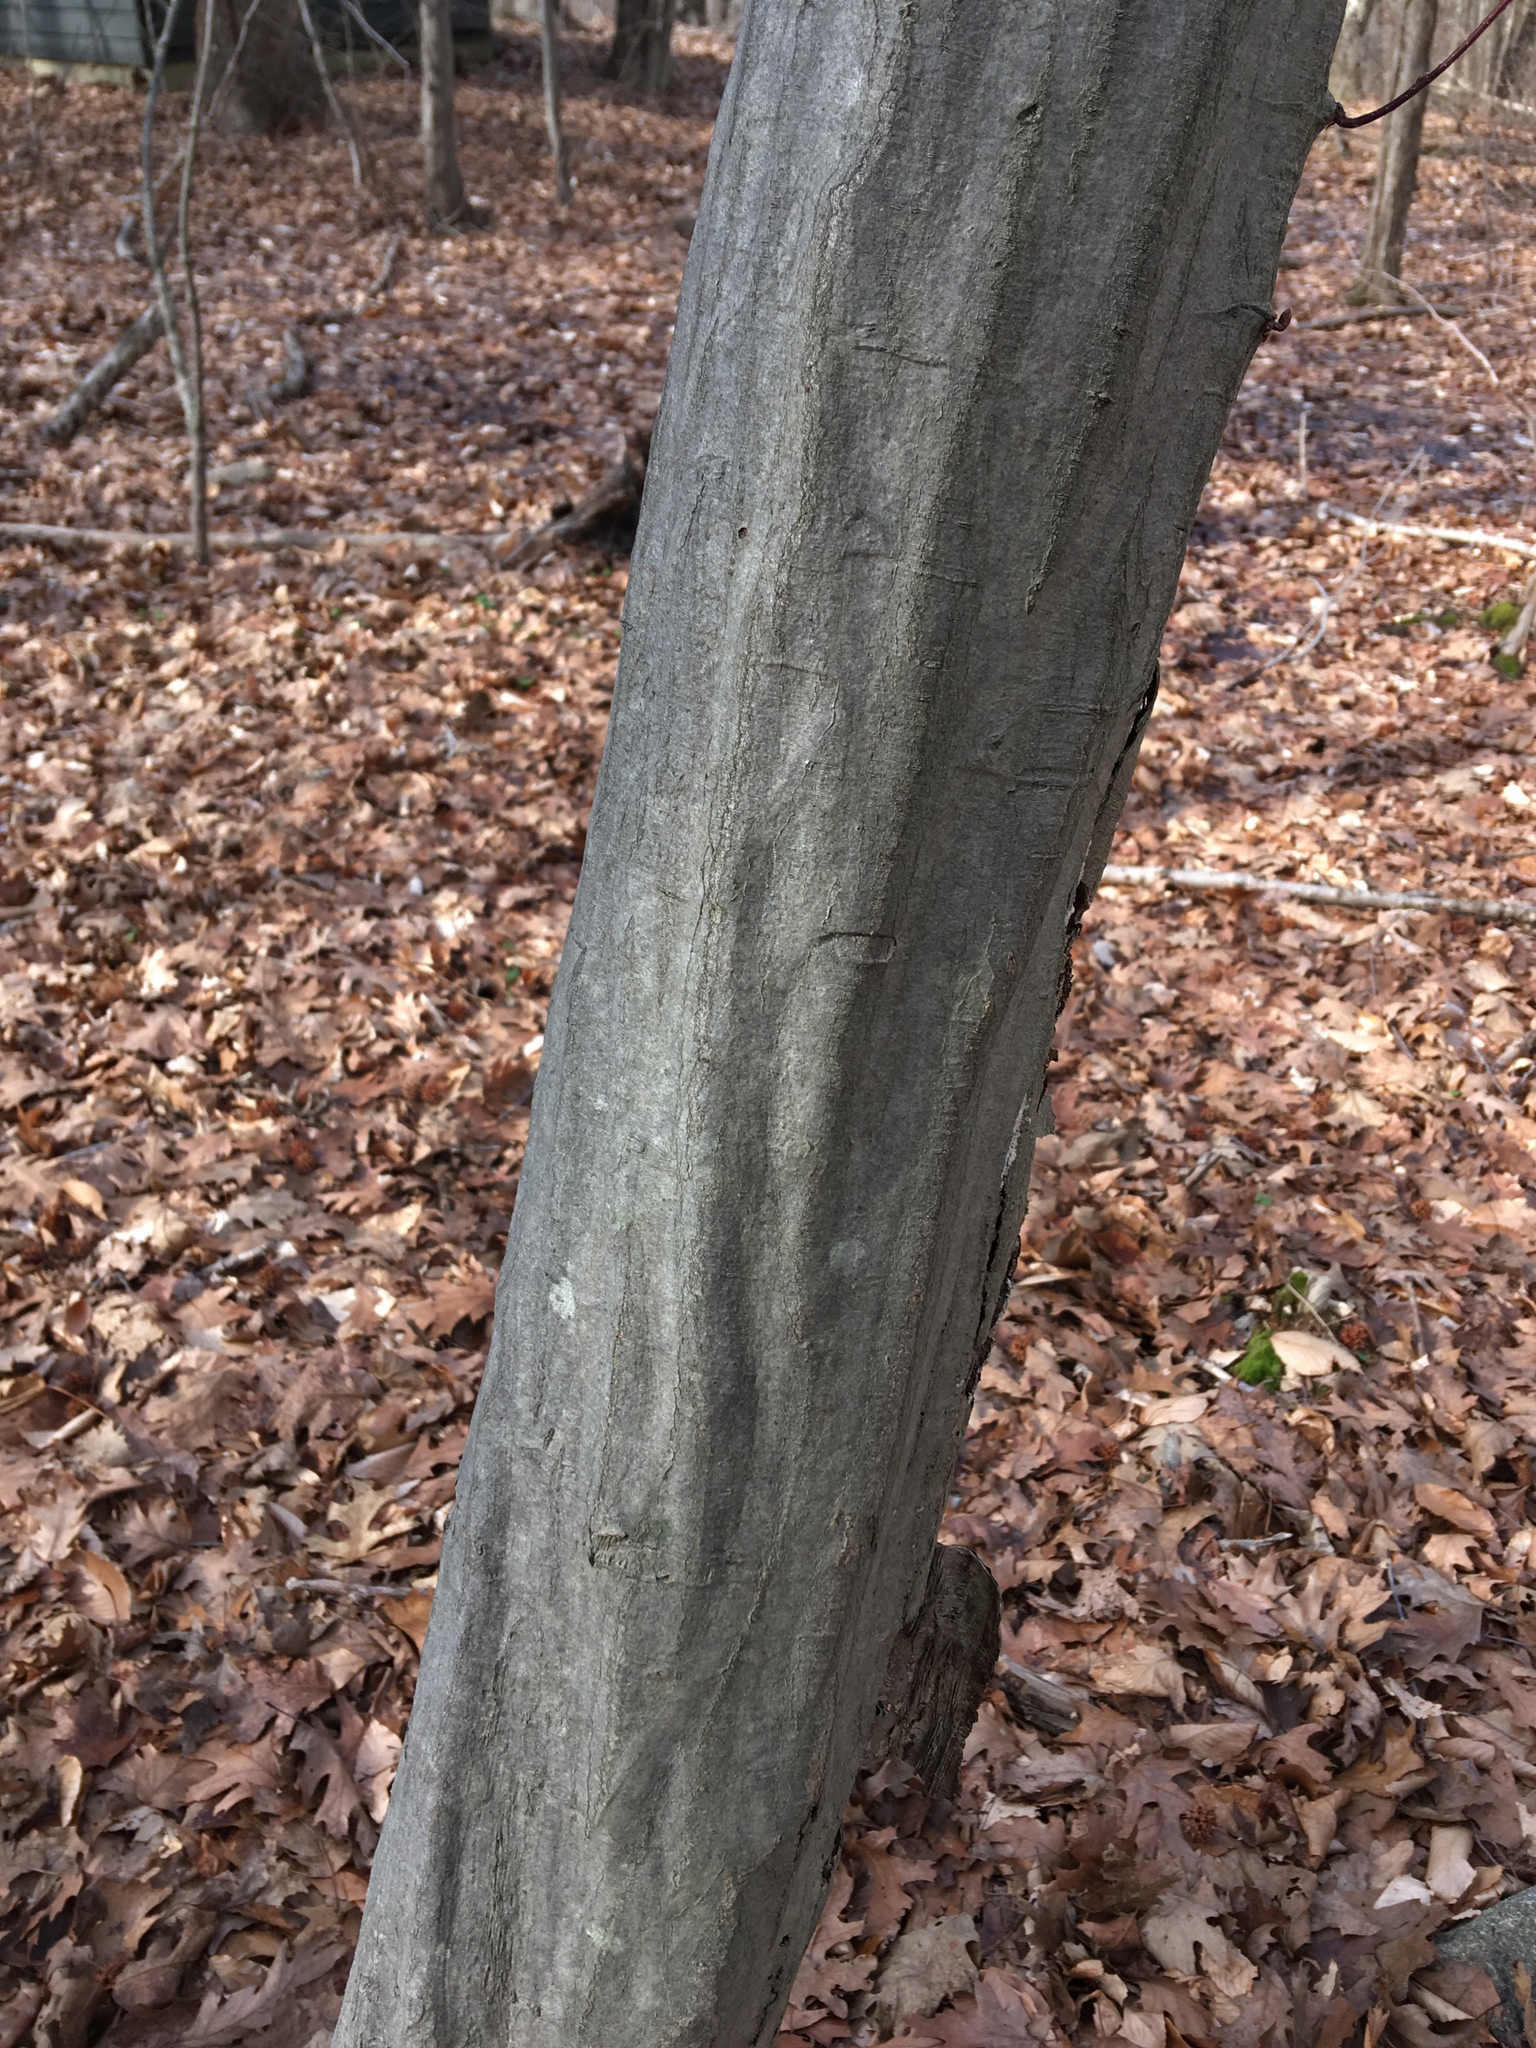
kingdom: Plantae
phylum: Tracheophyta
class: Magnoliopsida
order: Fagales
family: Betulaceae
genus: Carpinus
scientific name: Carpinus caroliniana
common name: American hornbeam
